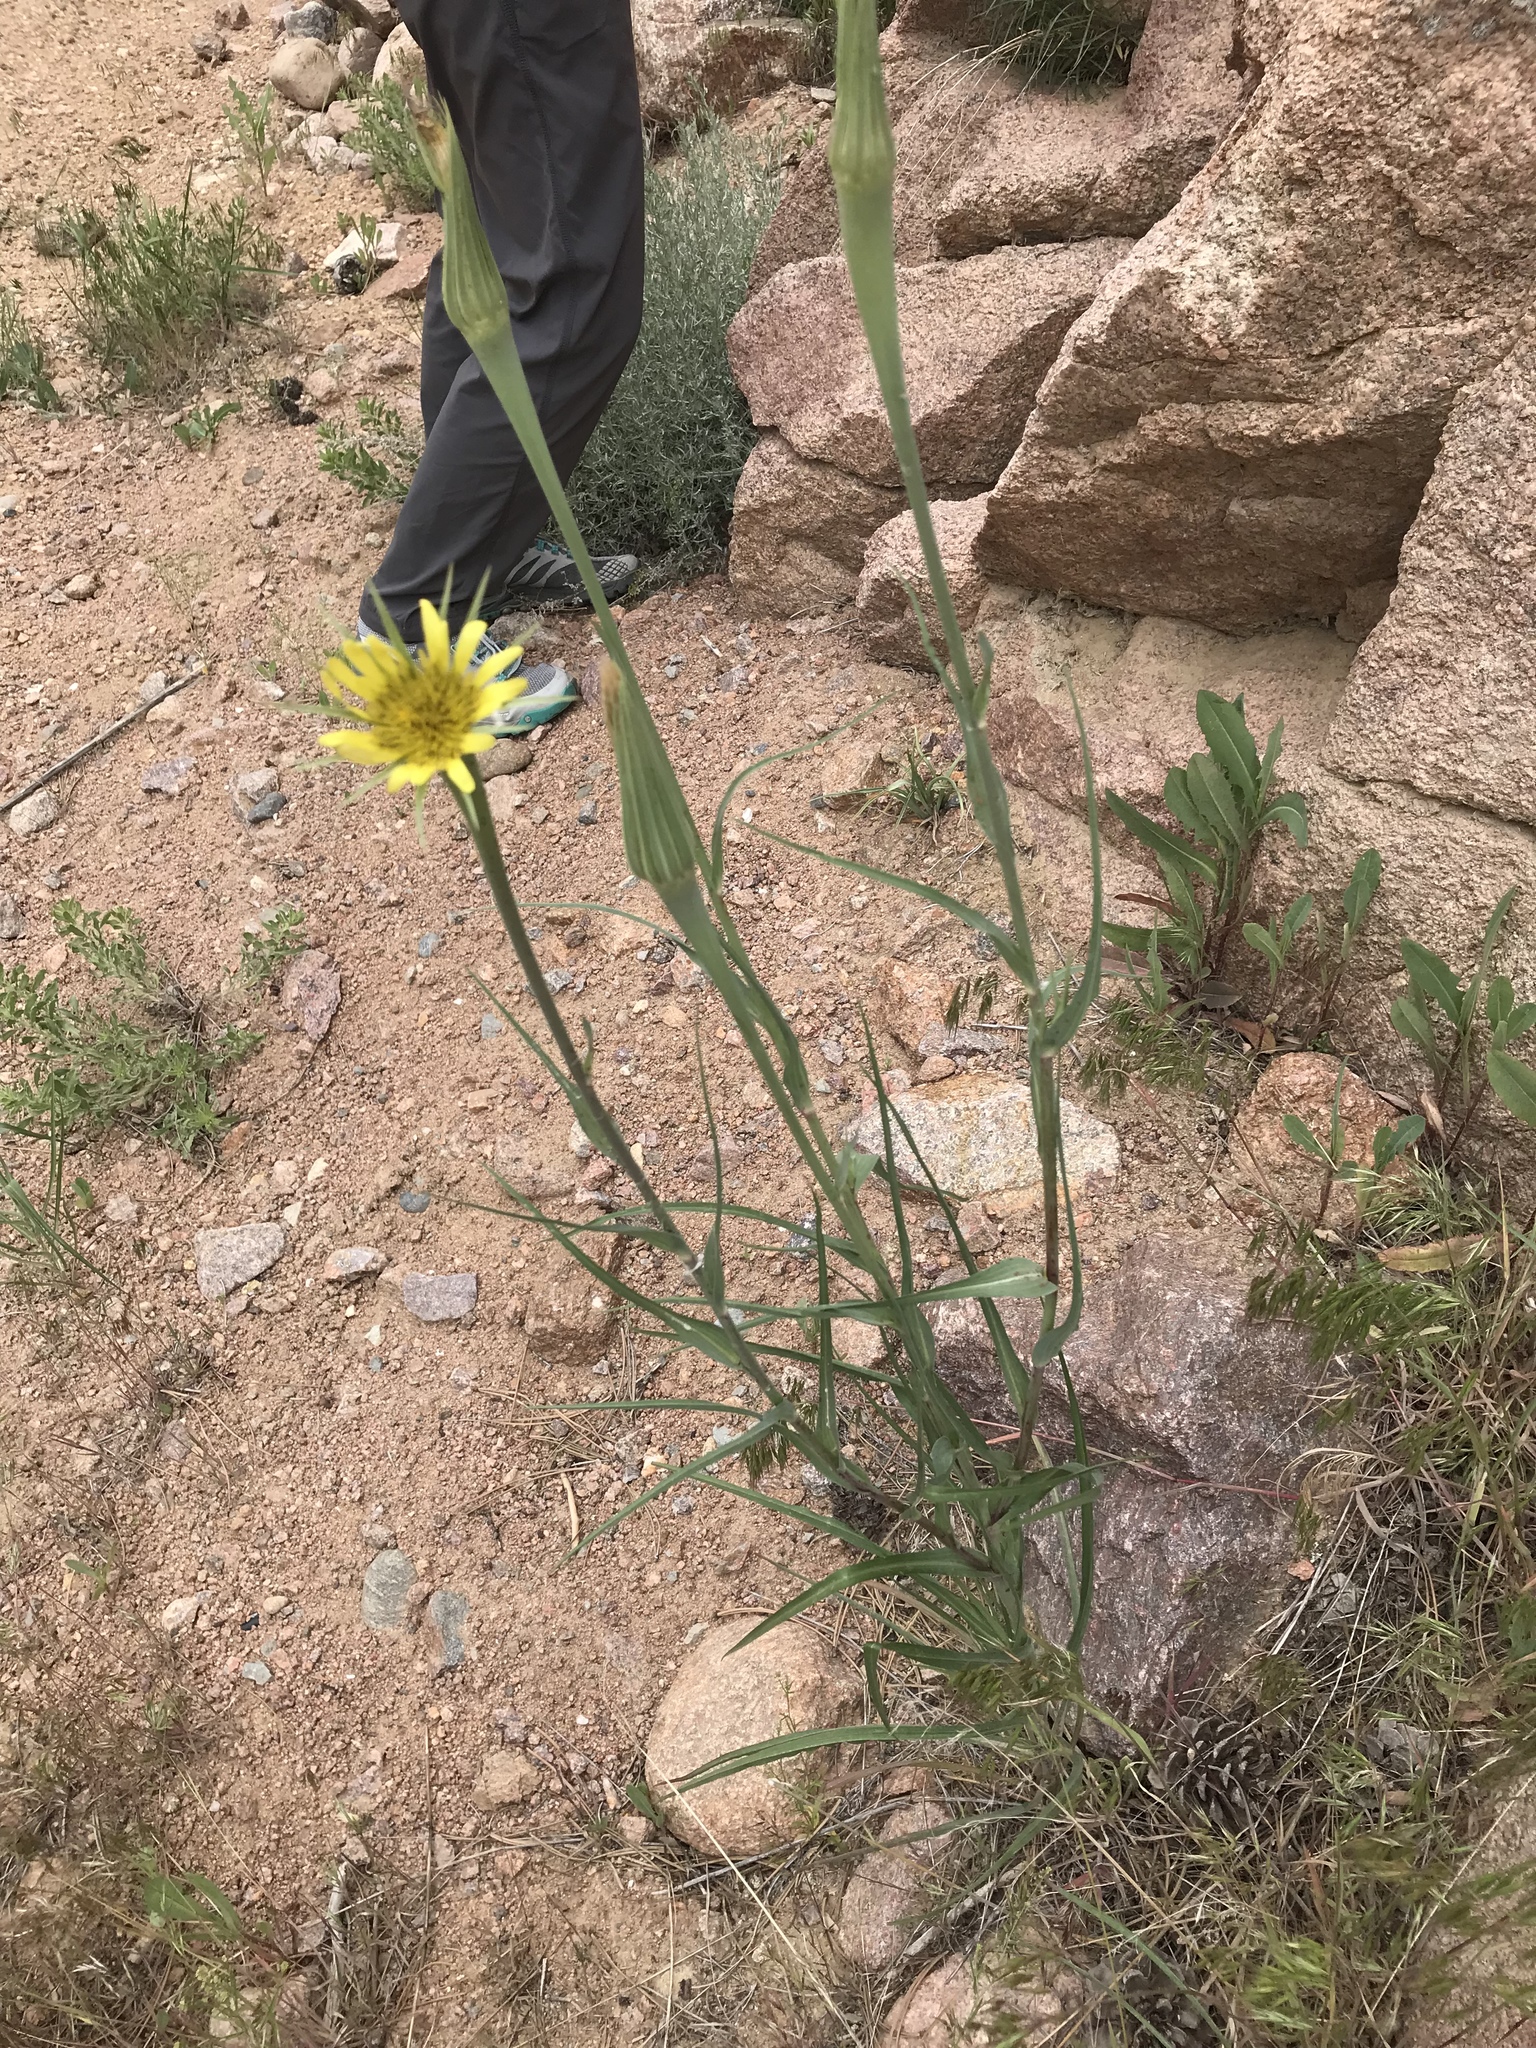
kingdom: Plantae
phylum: Tracheophyta
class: Magnoliopsida
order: Asterales
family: Asteraceae
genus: Tragopogon
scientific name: Tragopogon dubius
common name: Yellow salsify
